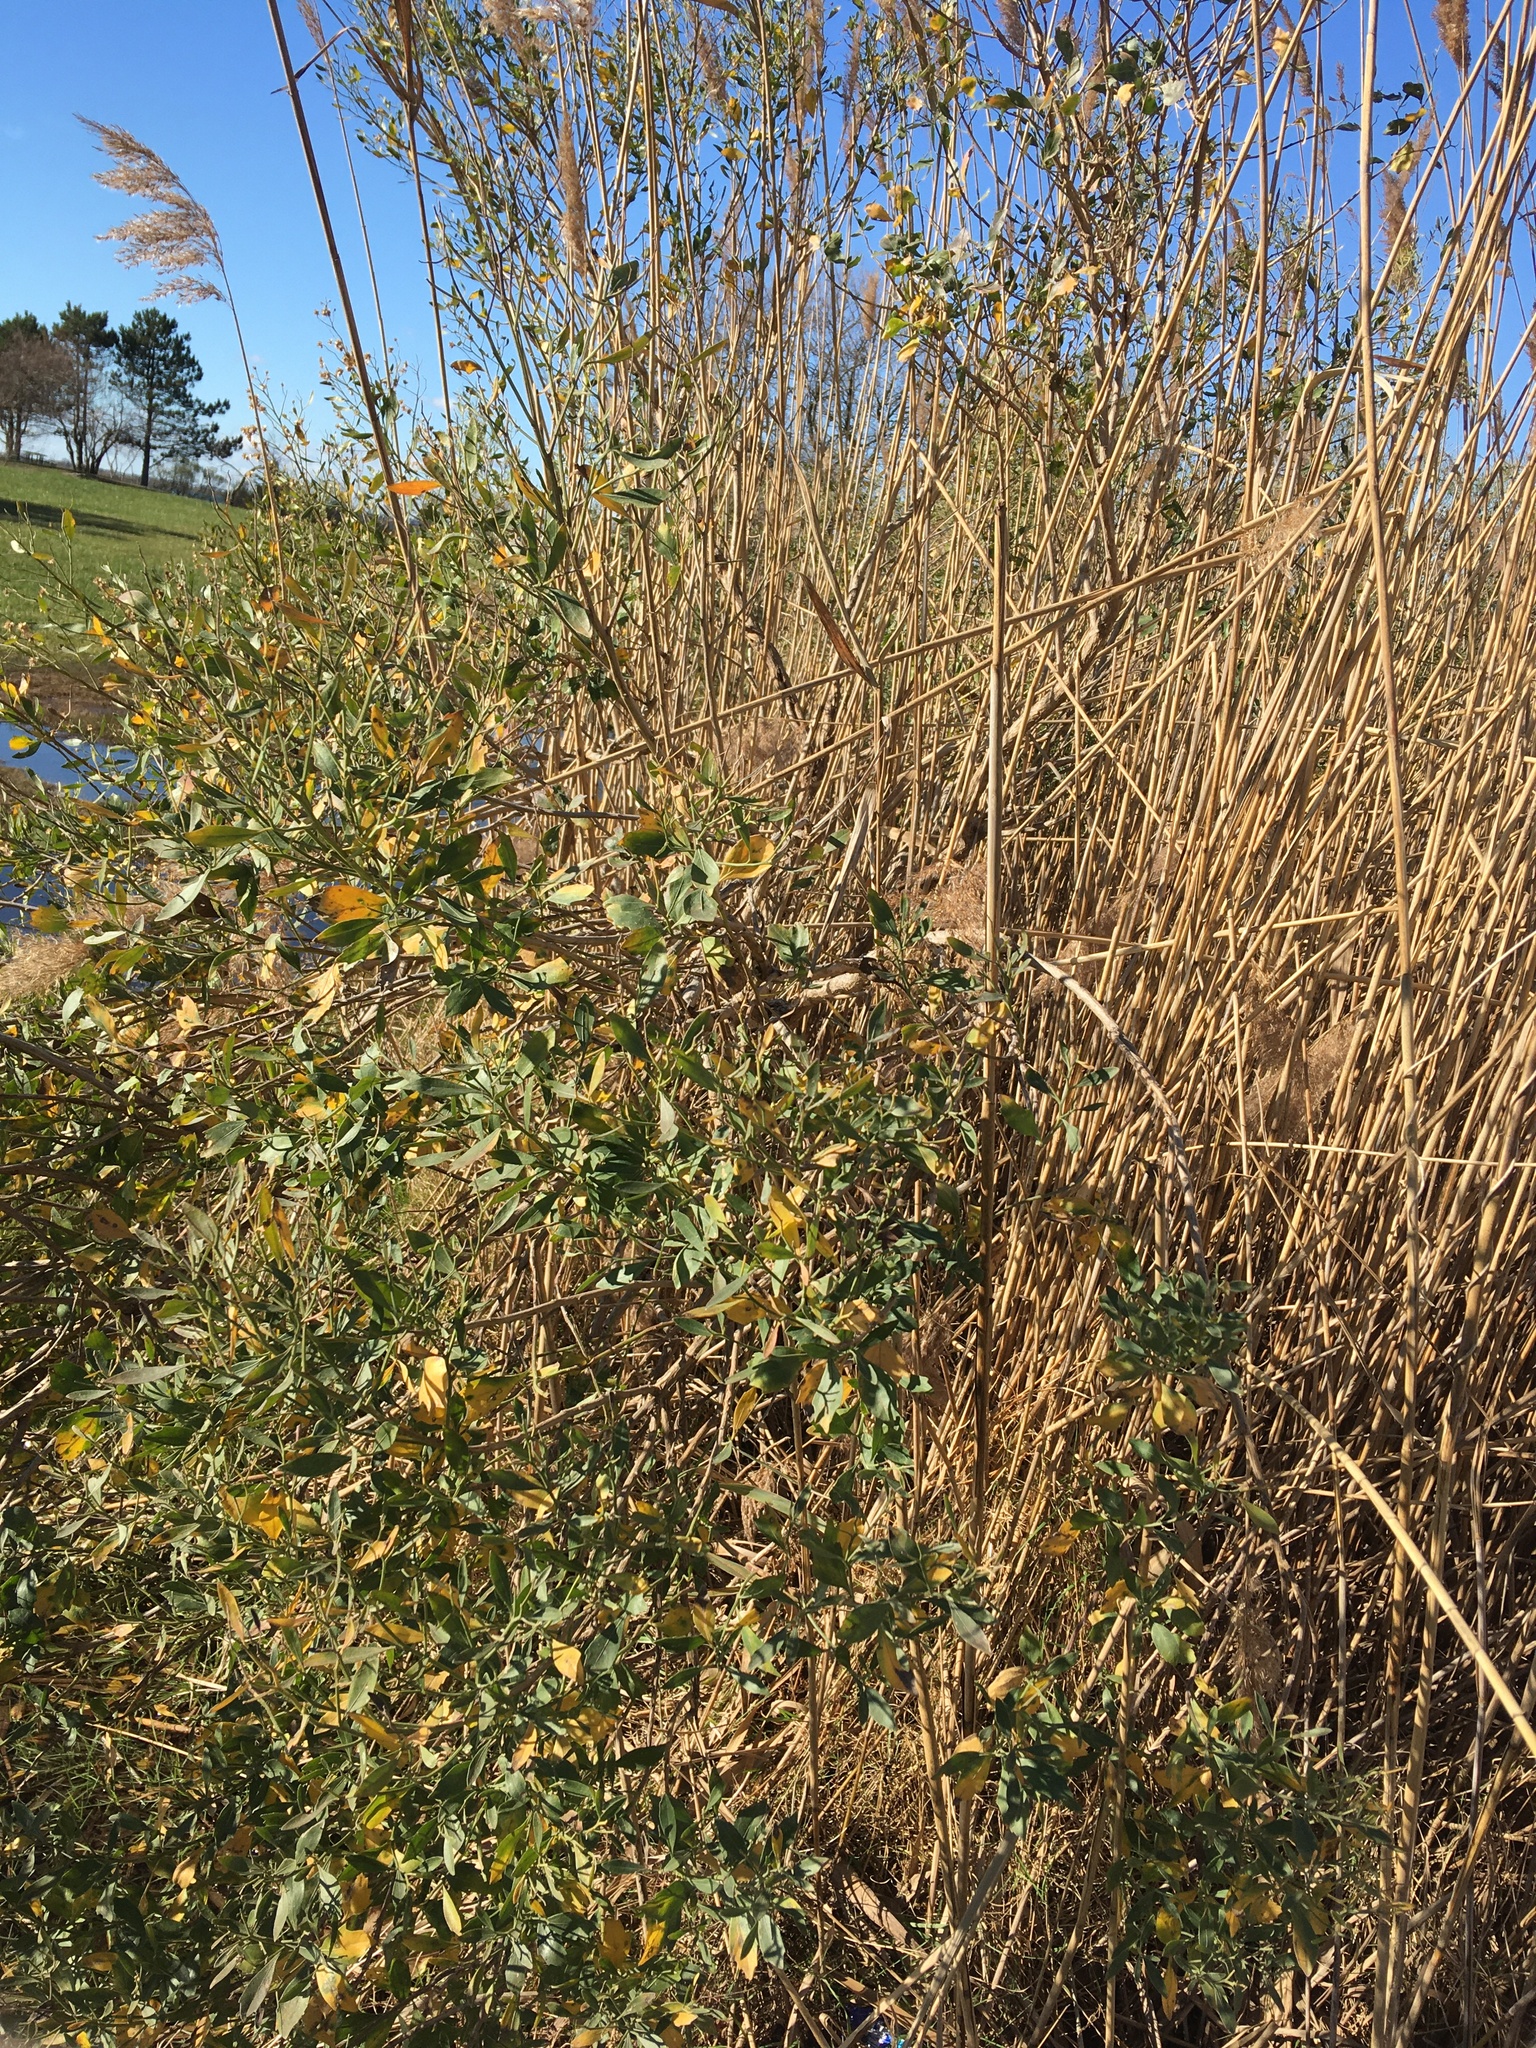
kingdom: Plantae
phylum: Tracheophyta
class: Magnoliopsida
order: Asterales
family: Asteraceae
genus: Baccharis
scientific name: Baccharis halimifolia
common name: Eastern baccharis
